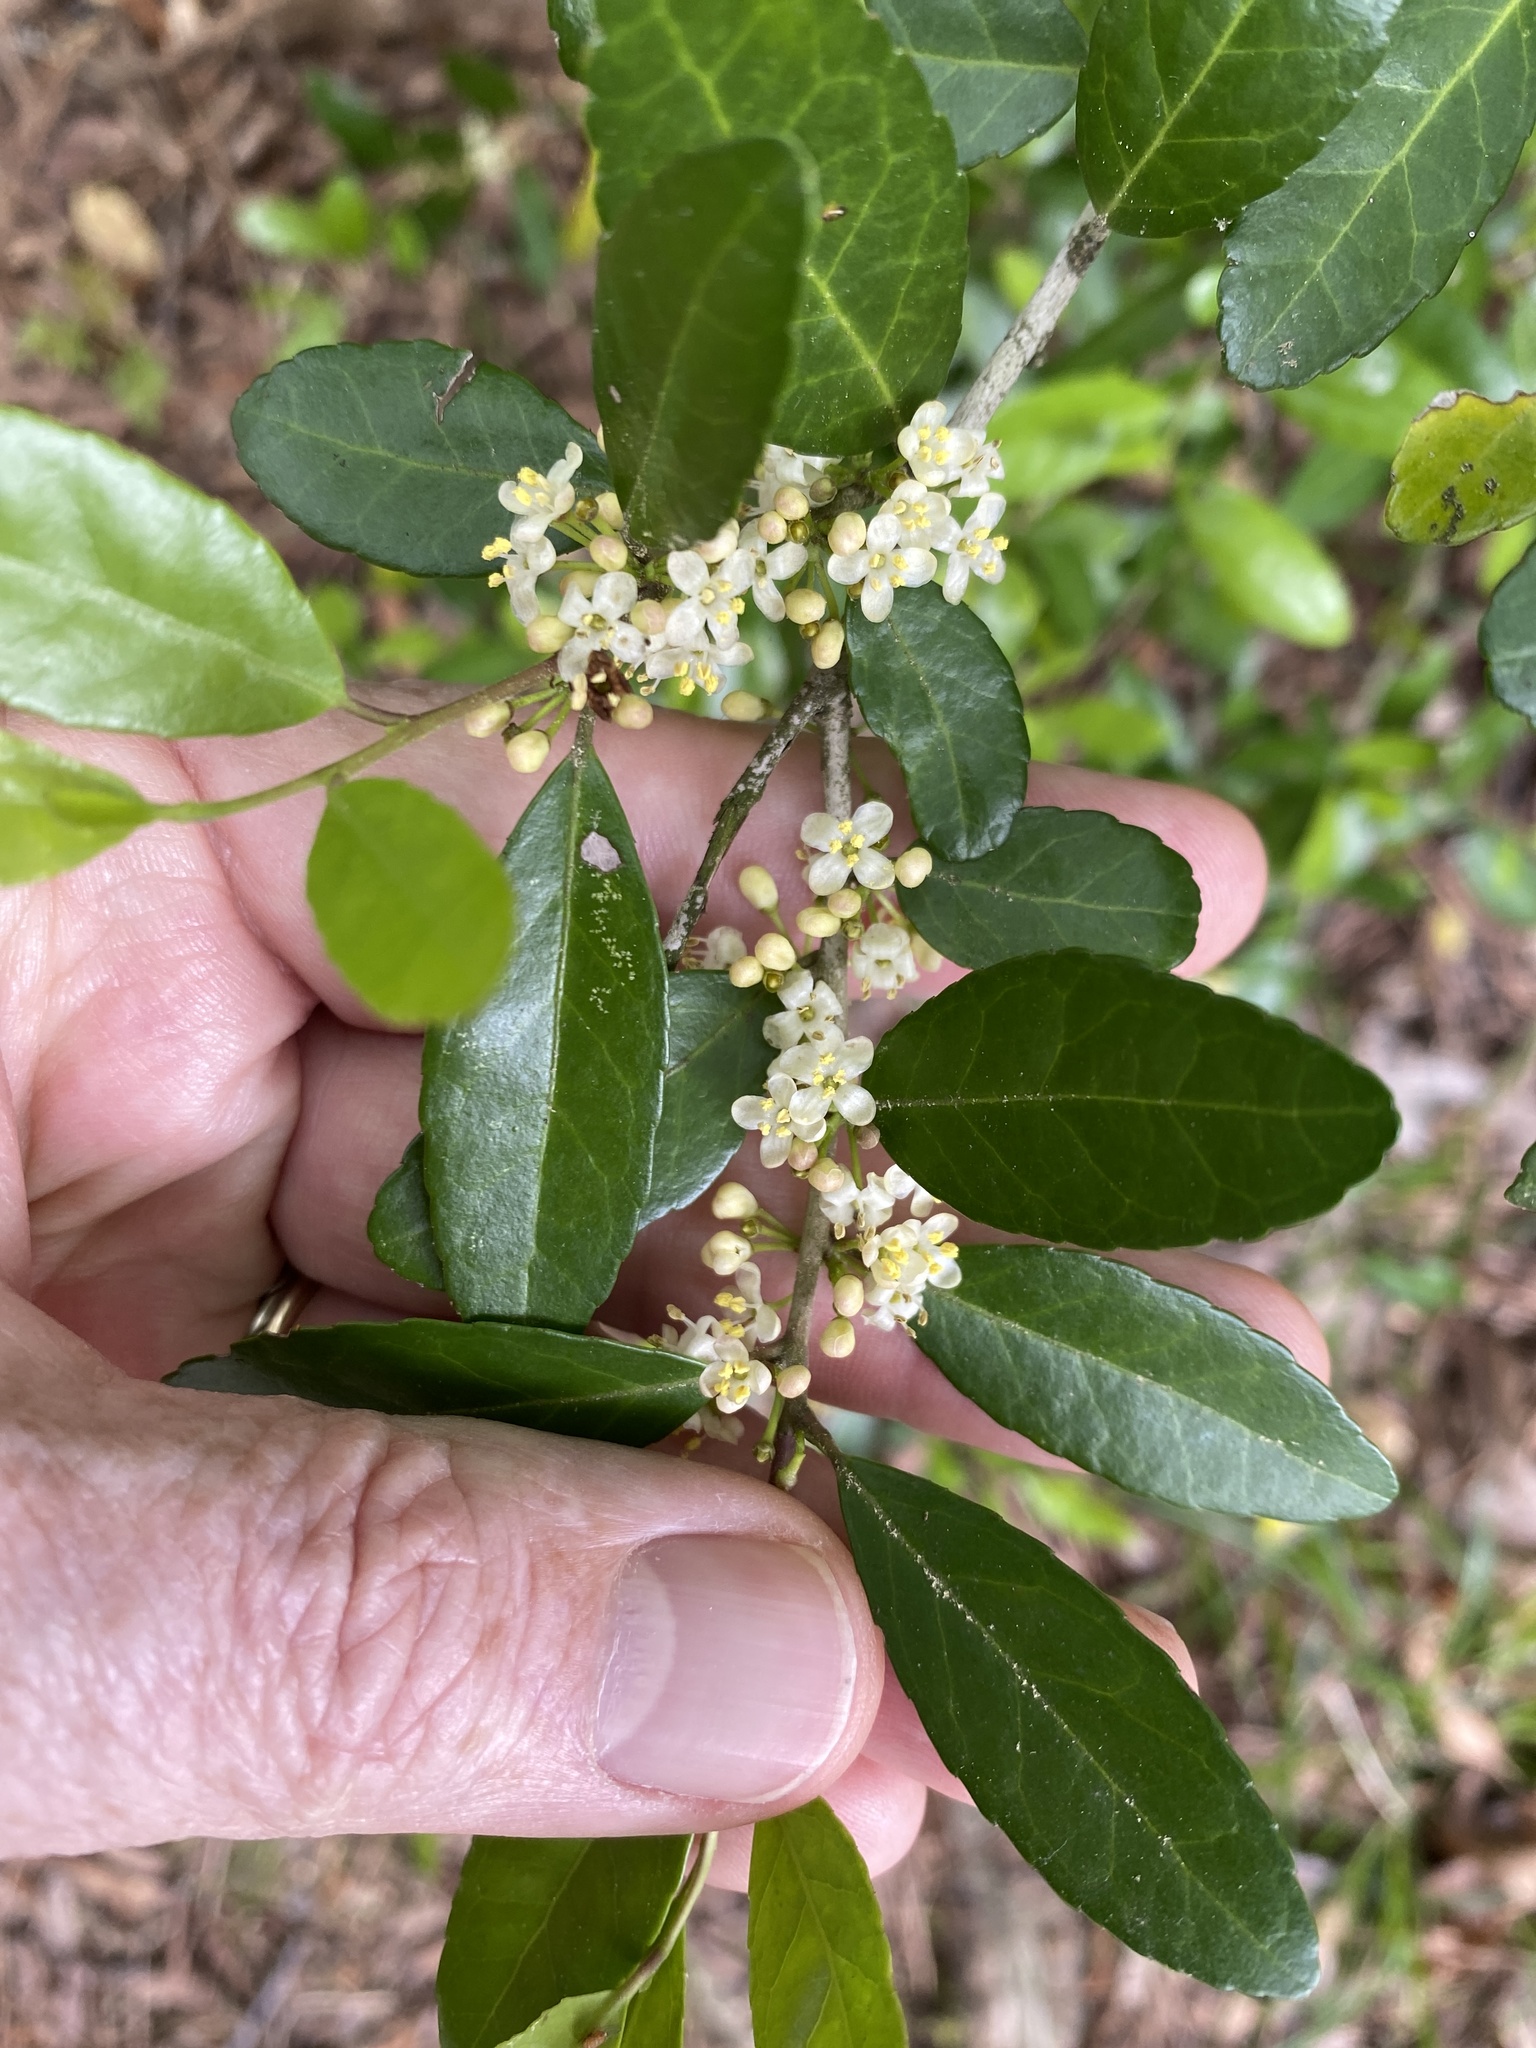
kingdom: Plantae
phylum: Tracheophyta
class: Magnoliopsida
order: Aquifoliales
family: Aquifoliaceae
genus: Ilex
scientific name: Ilex vomitoria
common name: Yaupon holly
